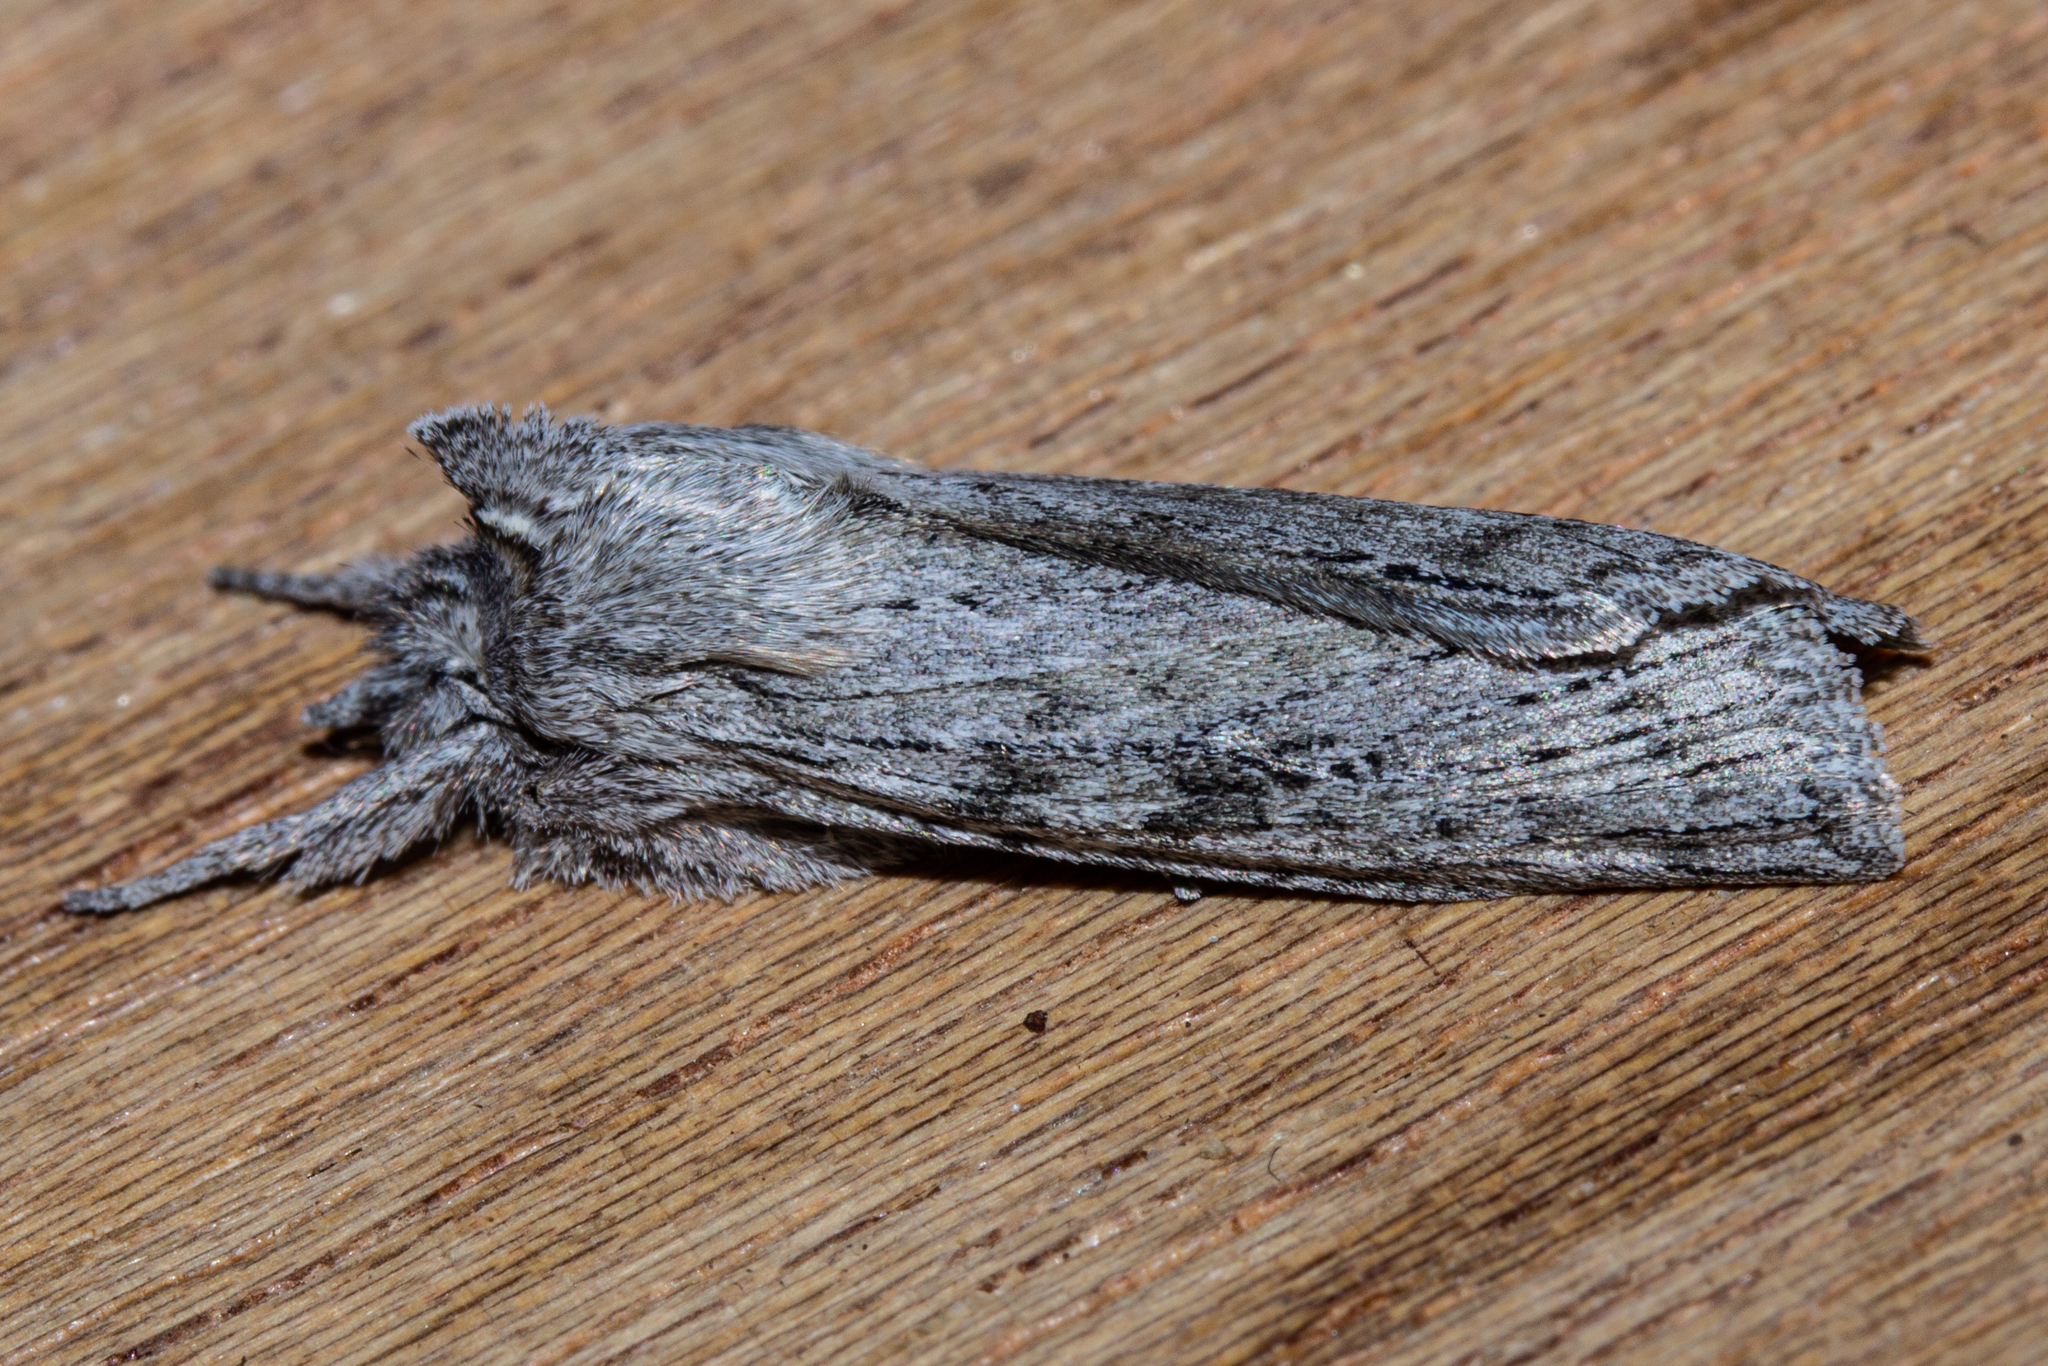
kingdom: Animalia
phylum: Arthropoda
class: Insecta
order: Lepidoptera
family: Noctuidae
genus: Physetica
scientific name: Physetica phricias
